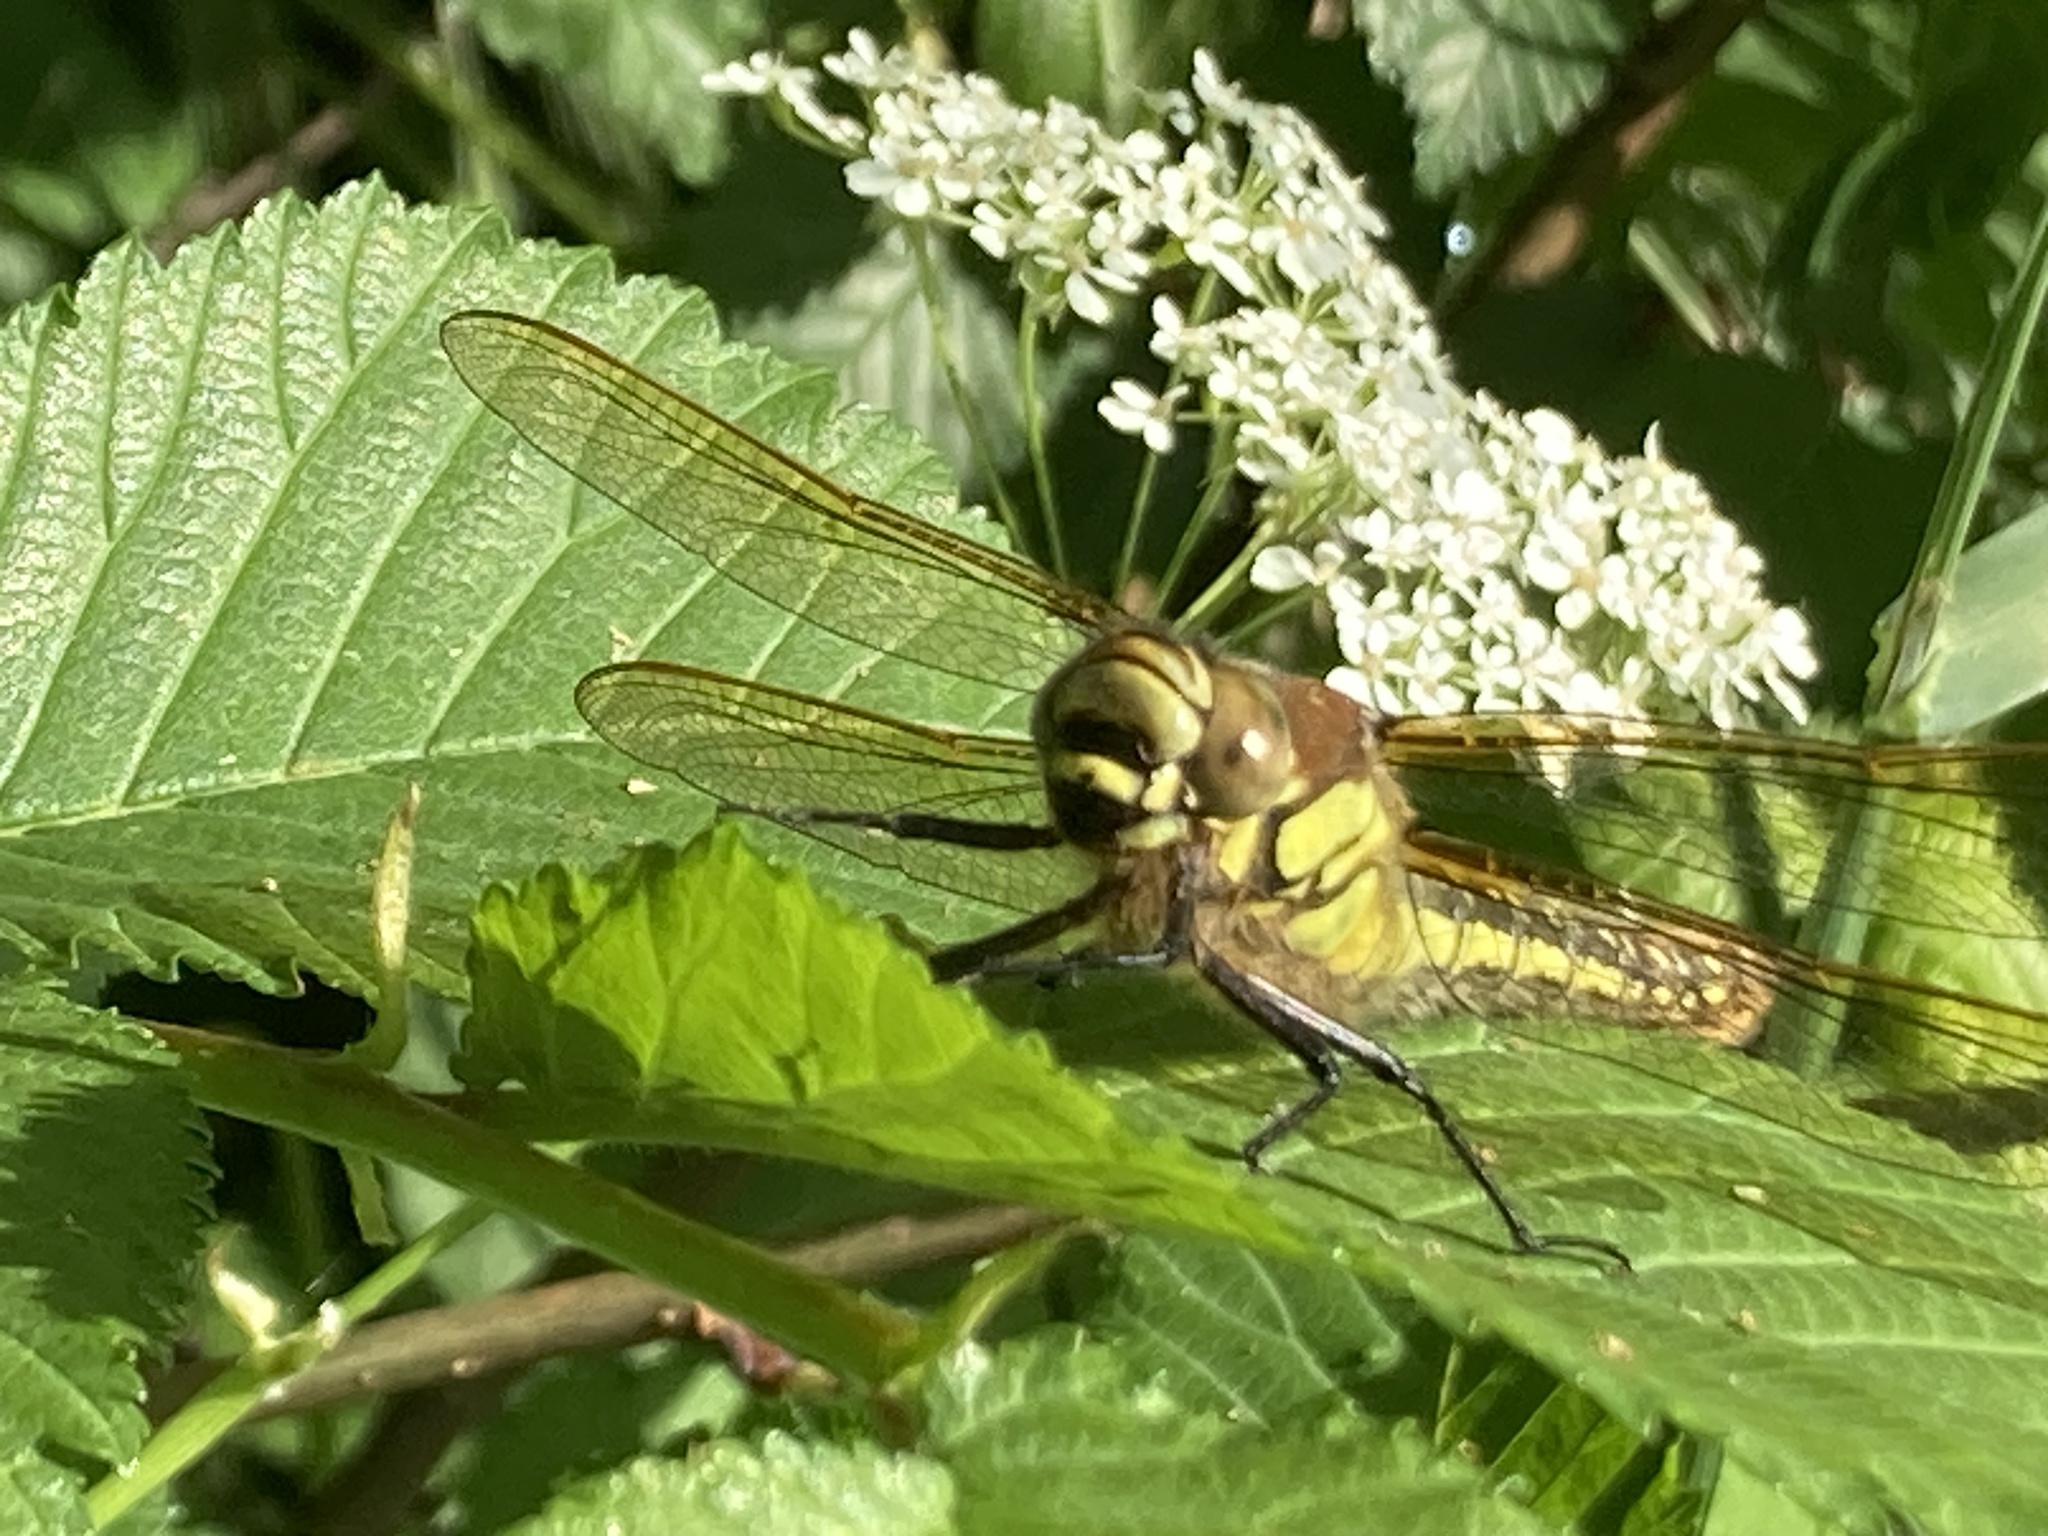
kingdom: Animalia
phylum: Arthropoda
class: Insecta
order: Odonata
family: Aeshnidae
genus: Brachytron
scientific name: Brachytron pratense
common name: Hairy hawker
